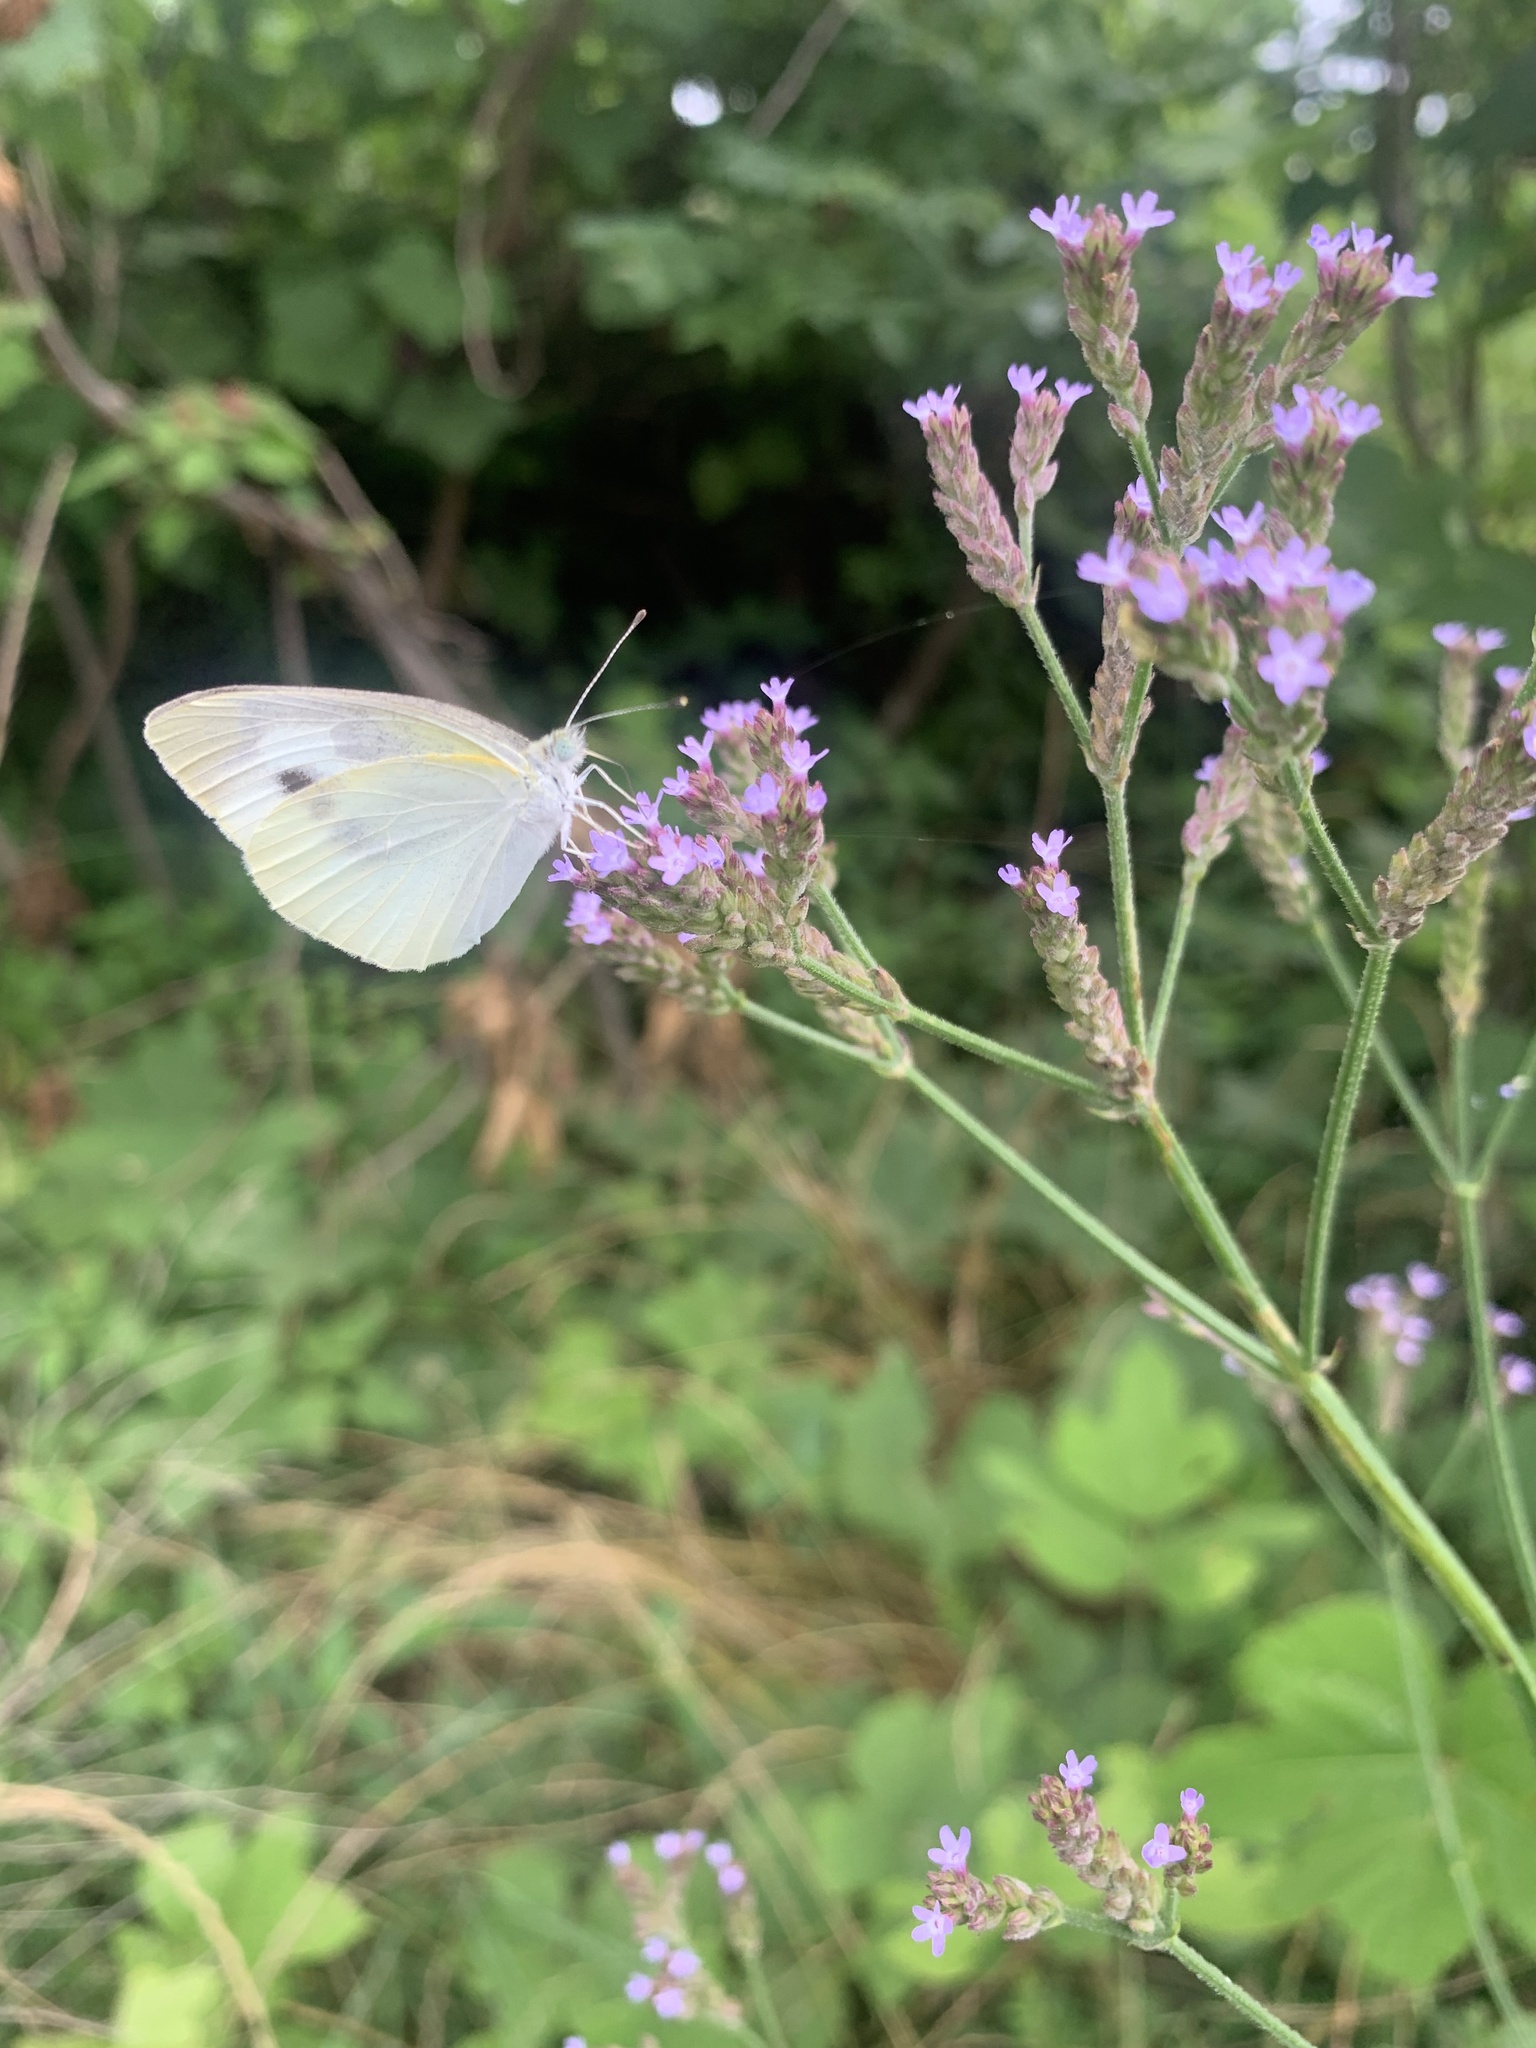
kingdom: Animalia
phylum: Arthropoda
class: Insecta
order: Lepidoptera
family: Pieridae
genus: Pieris
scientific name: Pieris rapae
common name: Small white
